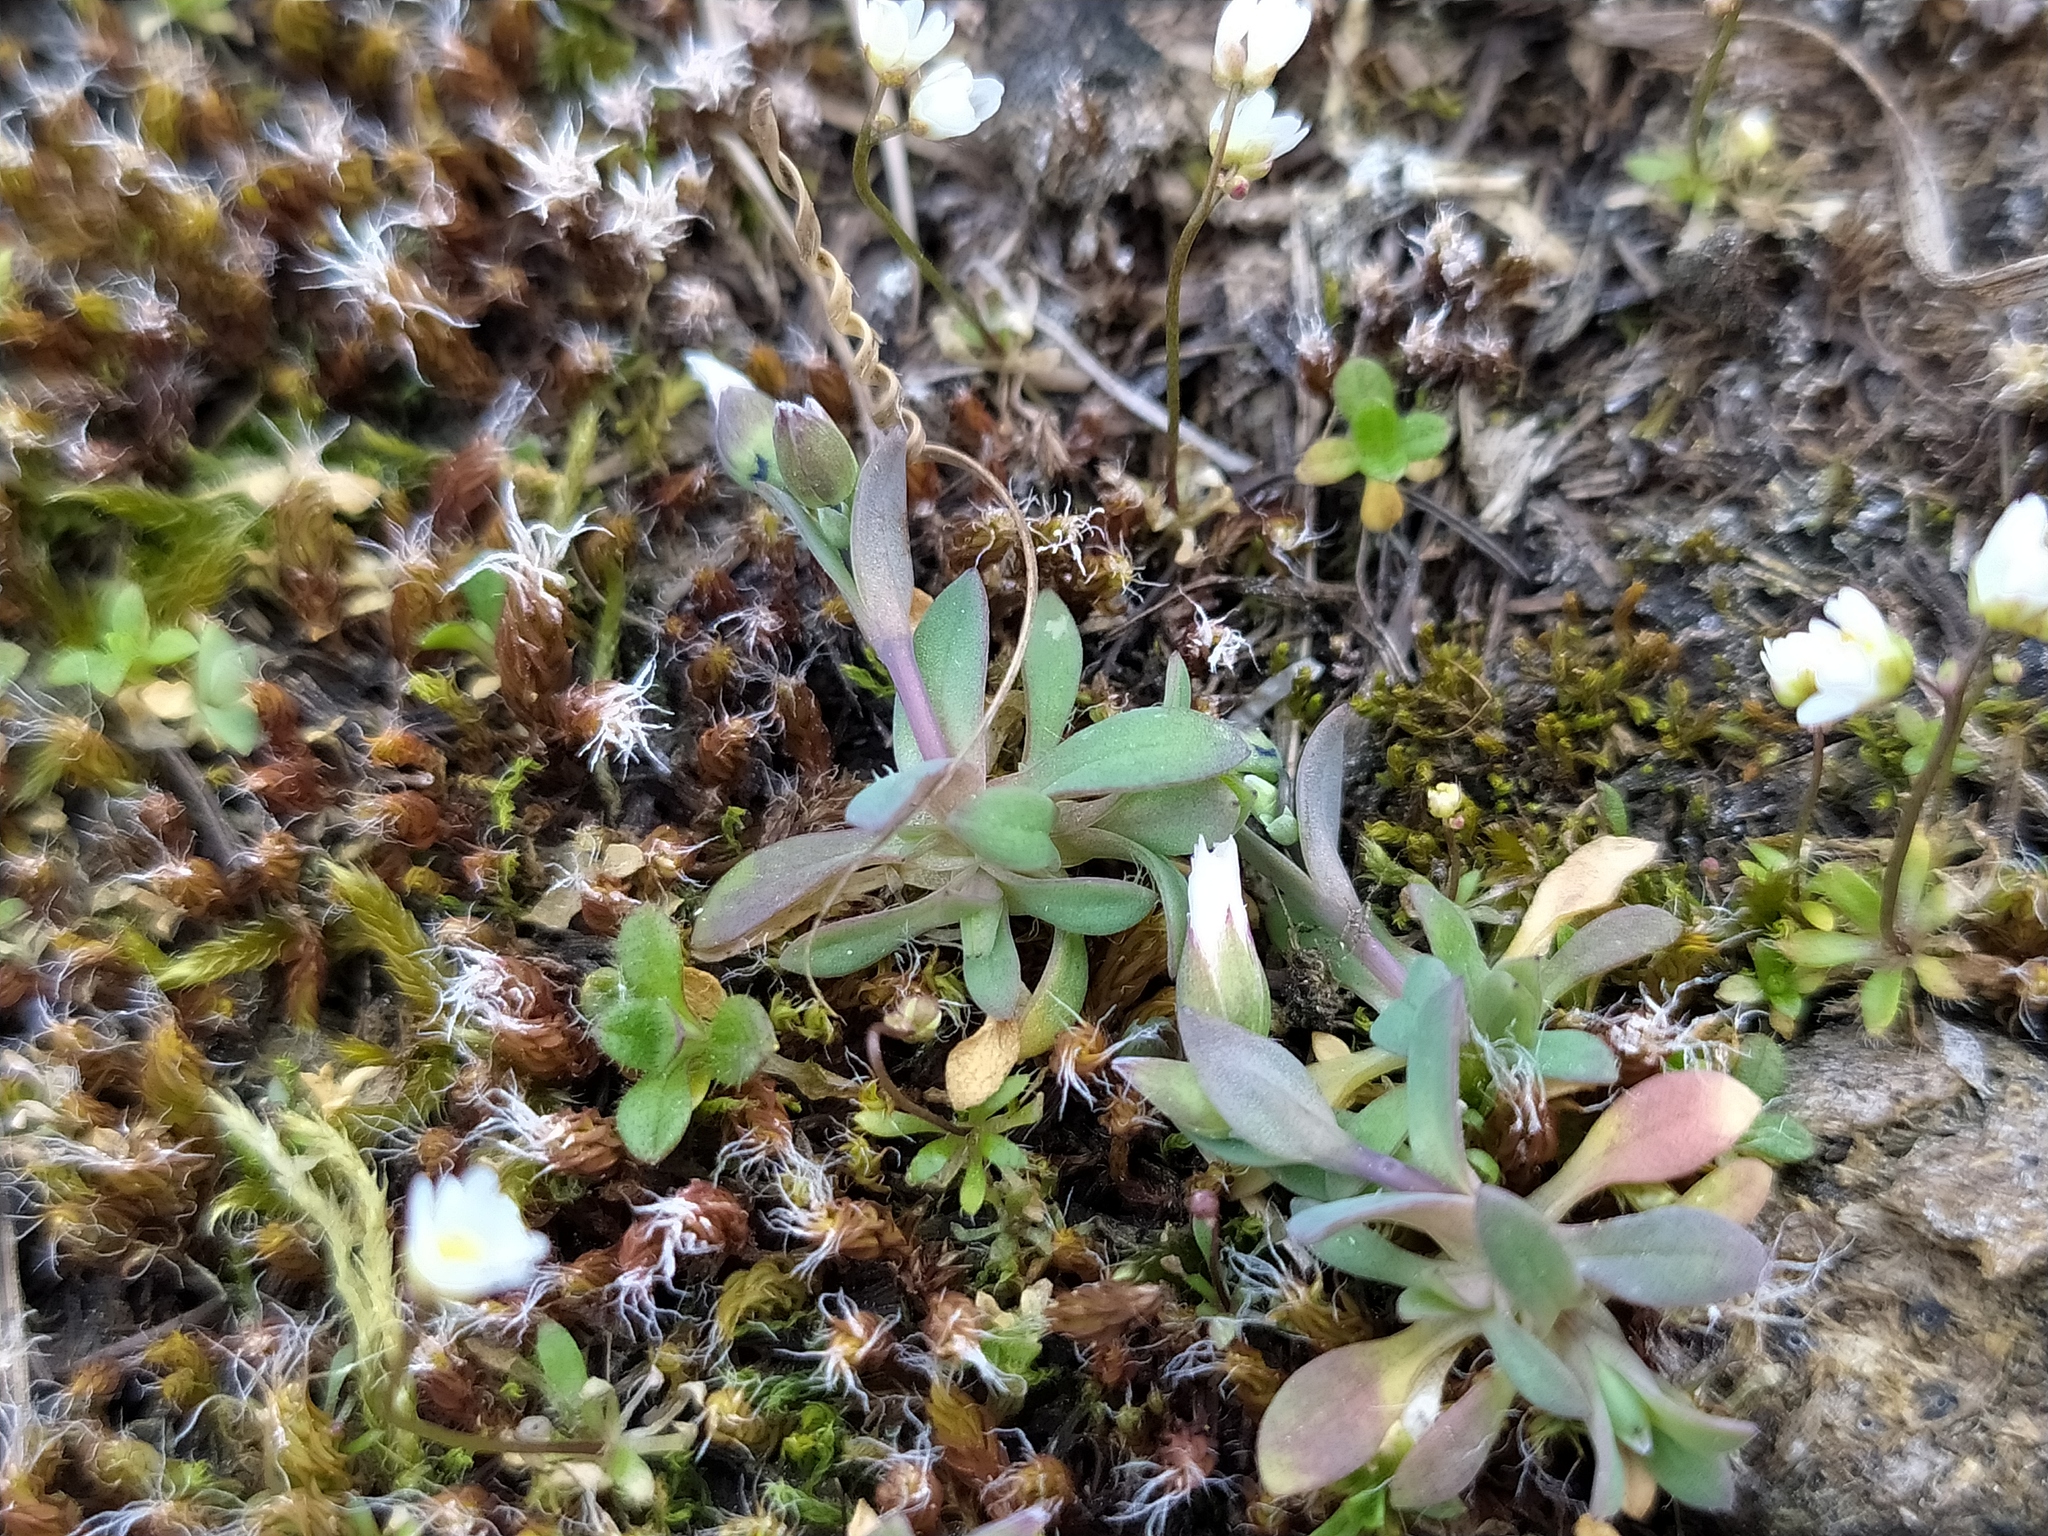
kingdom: Plantae
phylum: Tracheophyta
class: Magnoliopsida
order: Caryophyllales
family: Caryophyllaceae
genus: Holosteum
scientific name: Holosteum umbellatum
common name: Jagged chickweed
